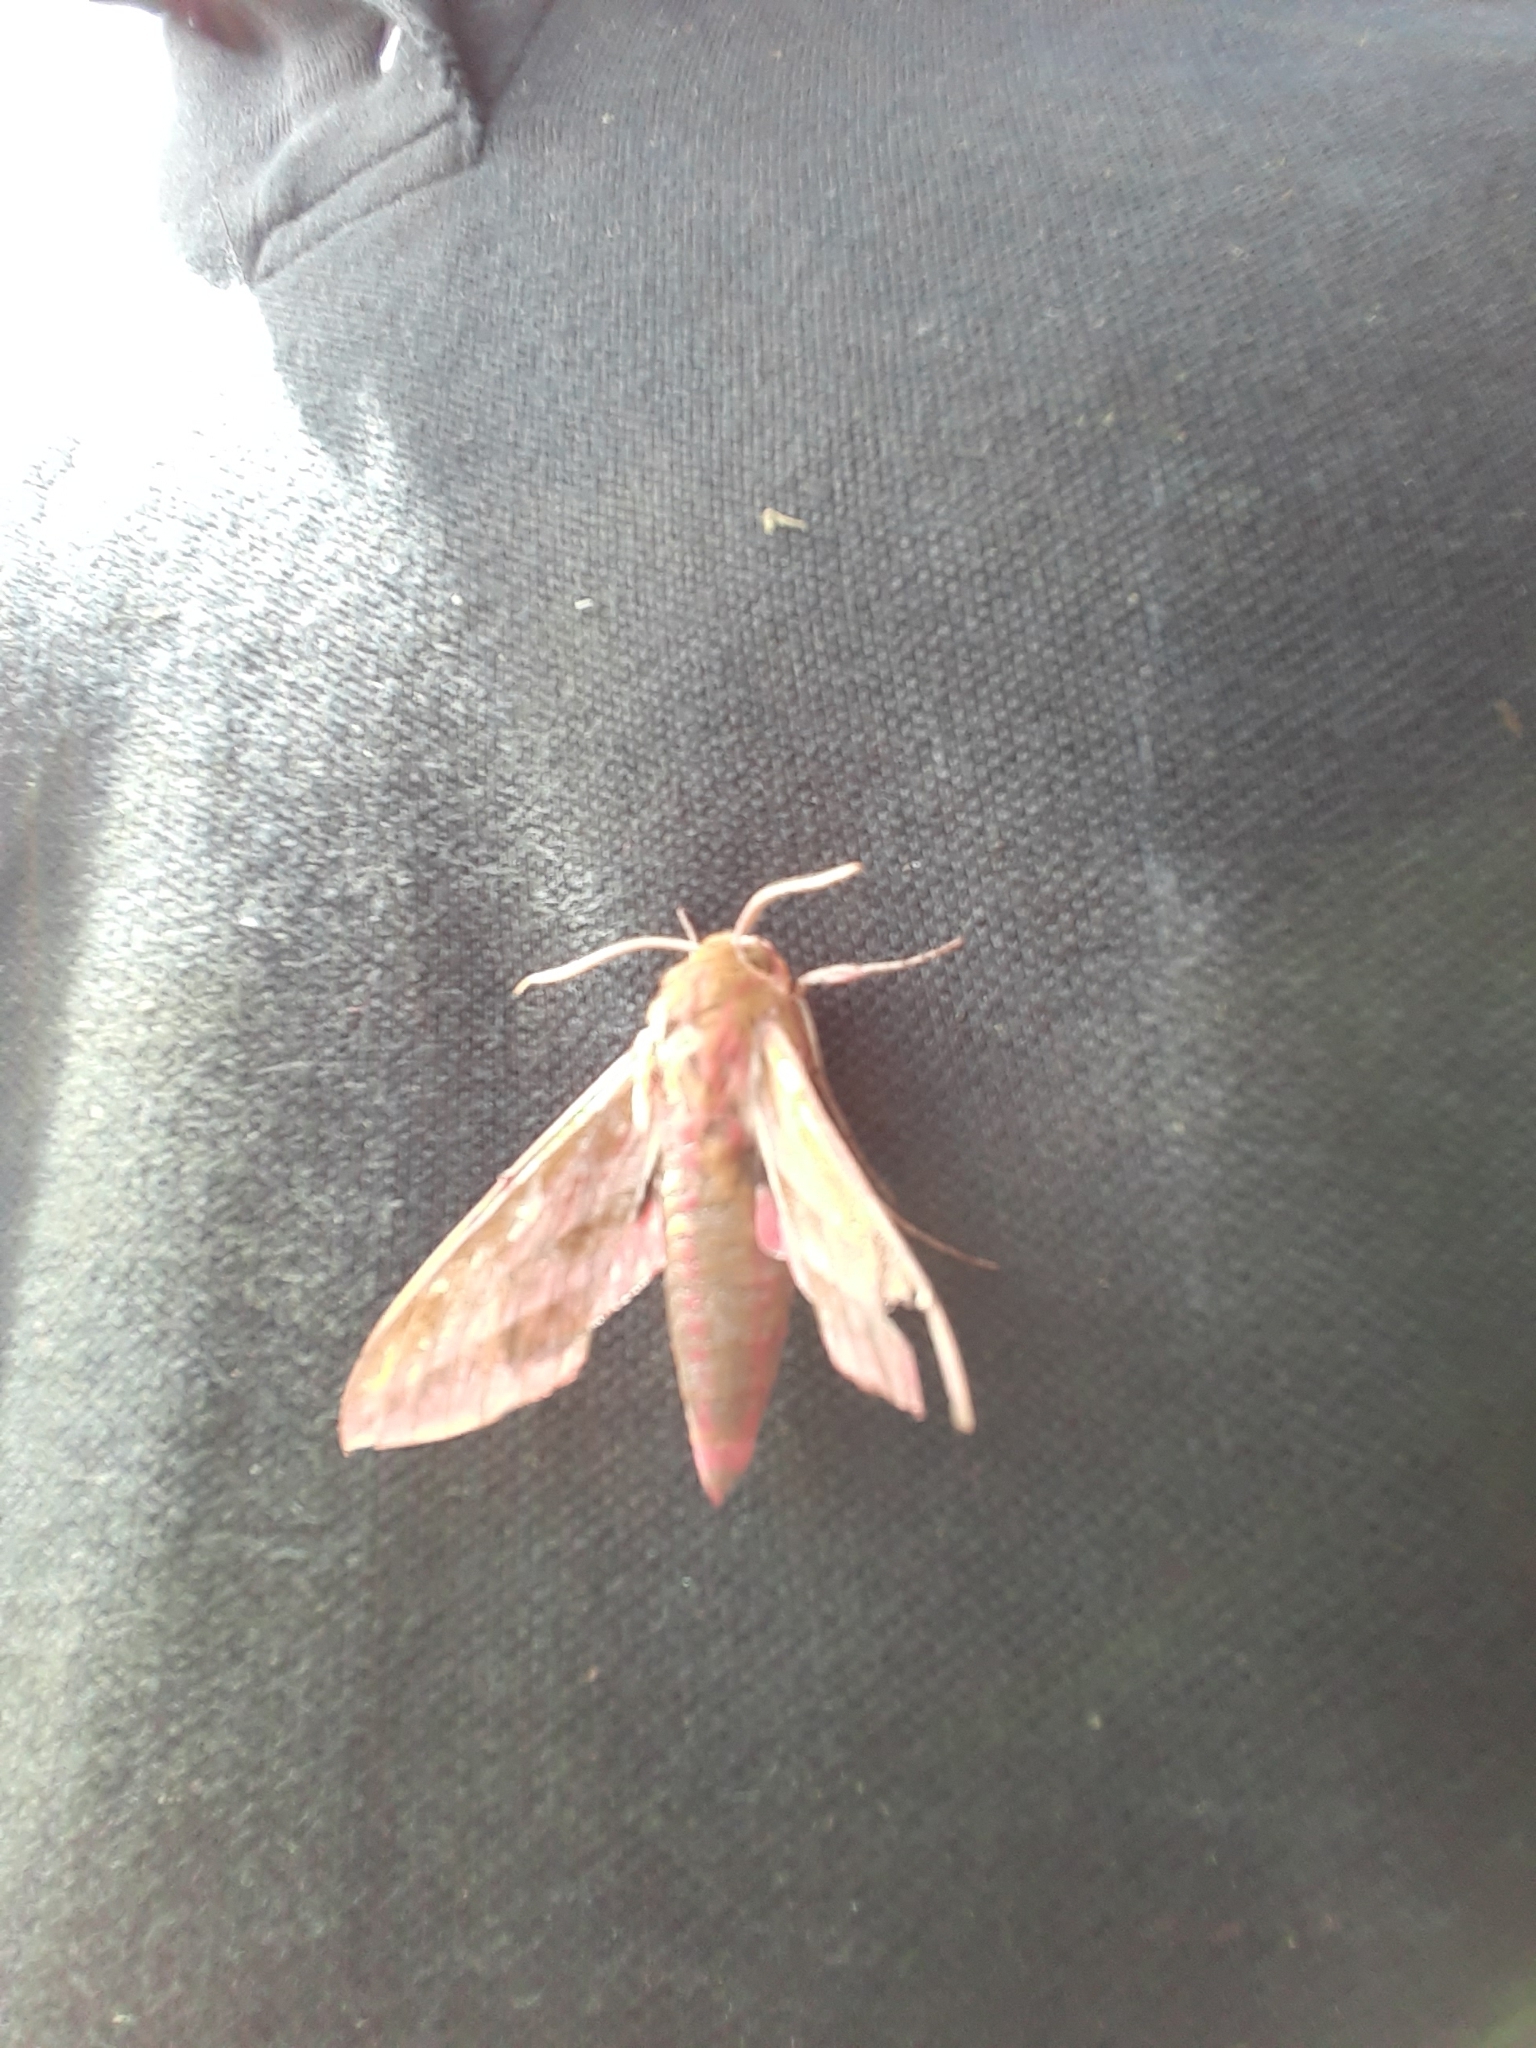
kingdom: Animalia
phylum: Arthropoda
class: Insecta
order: Lepidoptera
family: Sphingidae
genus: Deilephila
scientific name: Deilephila elpenor
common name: Elephant hawk-moth
